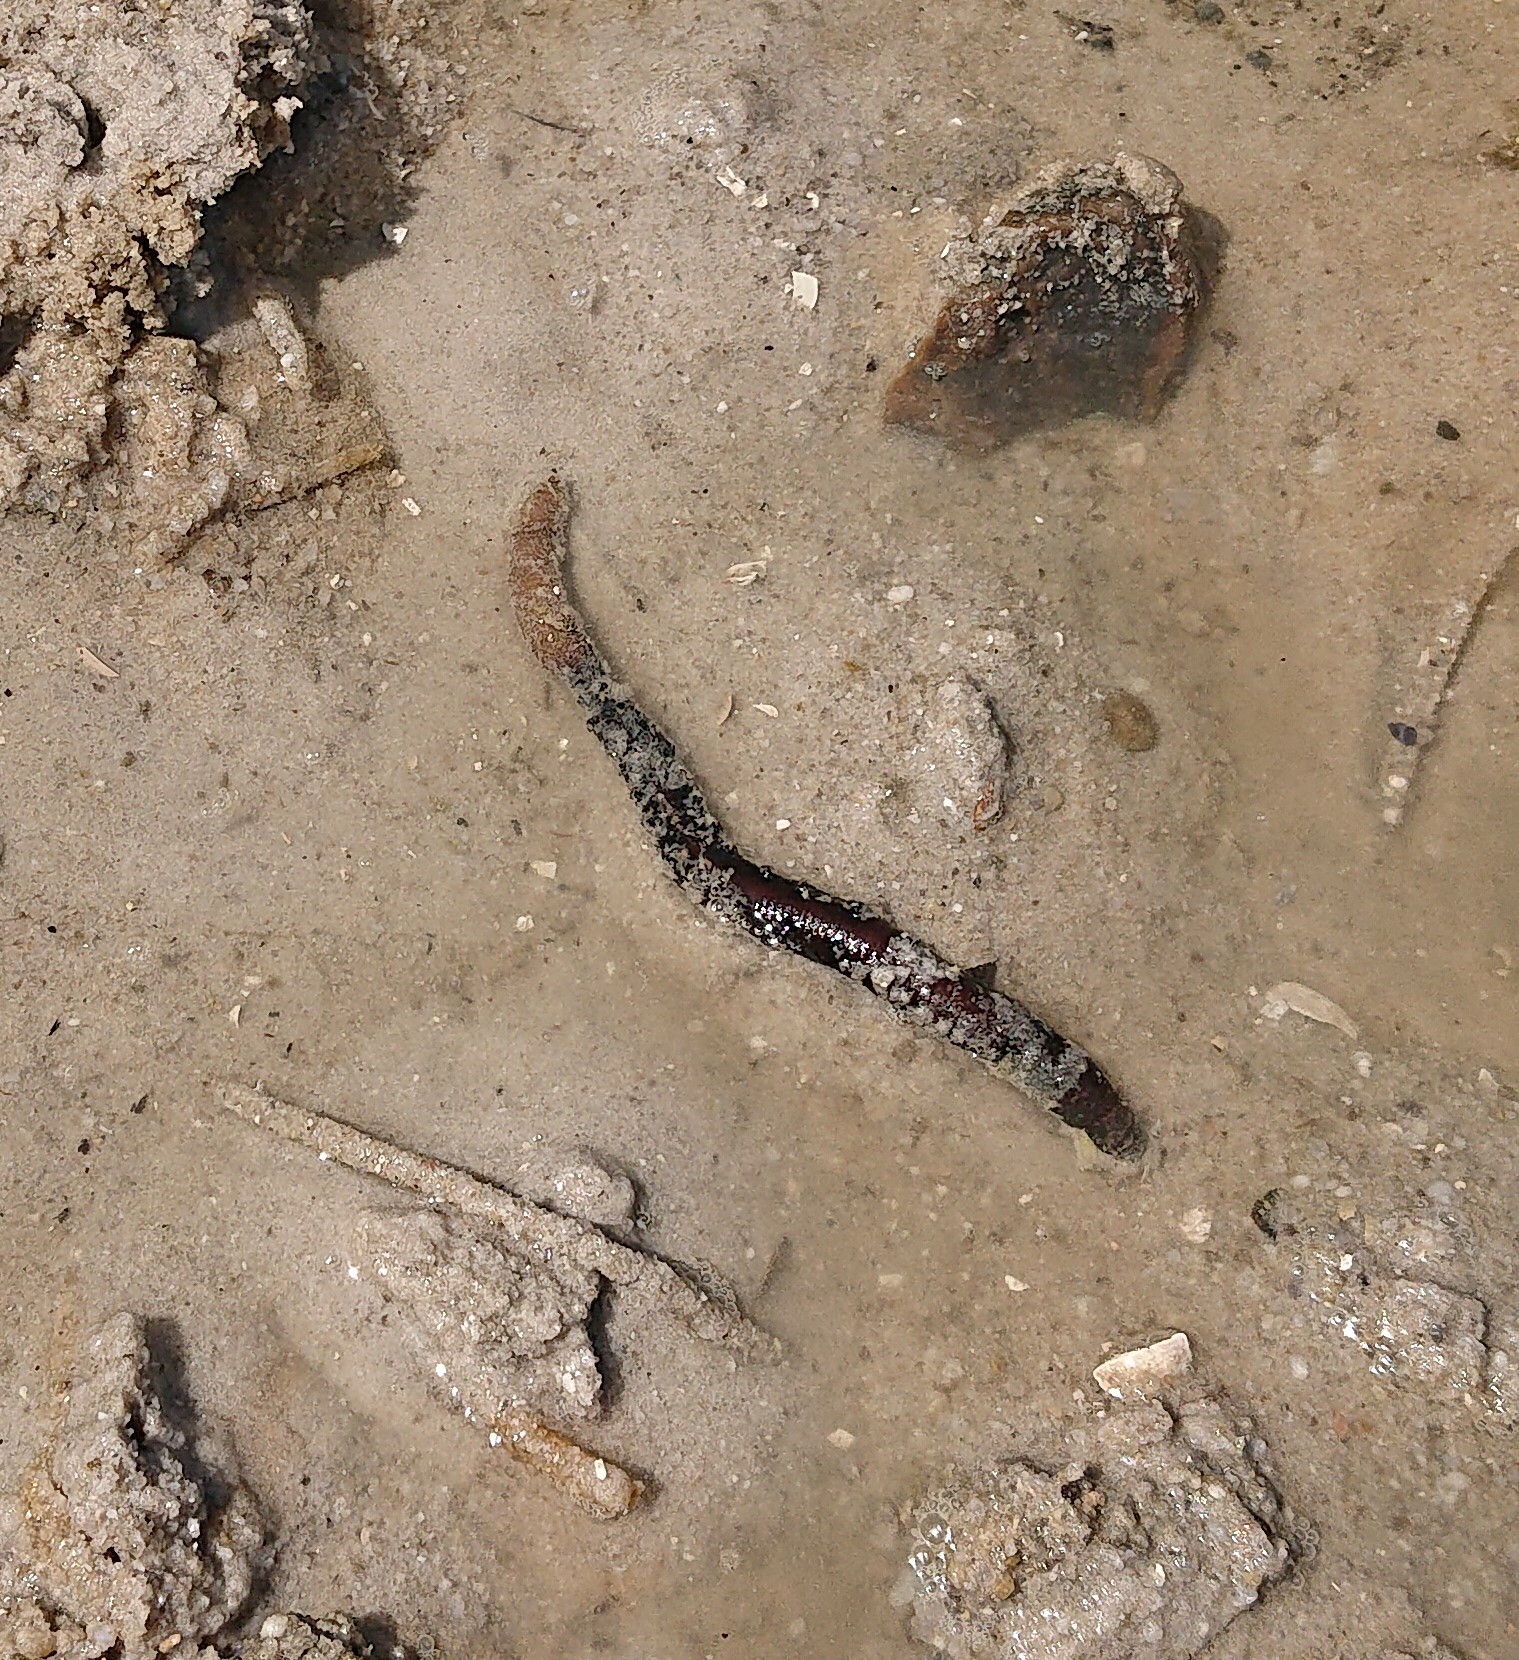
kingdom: Animalia
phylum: Annelida
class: Polychaeta
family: Arenicolidae
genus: Arenicola
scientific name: Arenicola marina
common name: Blow lugworm
